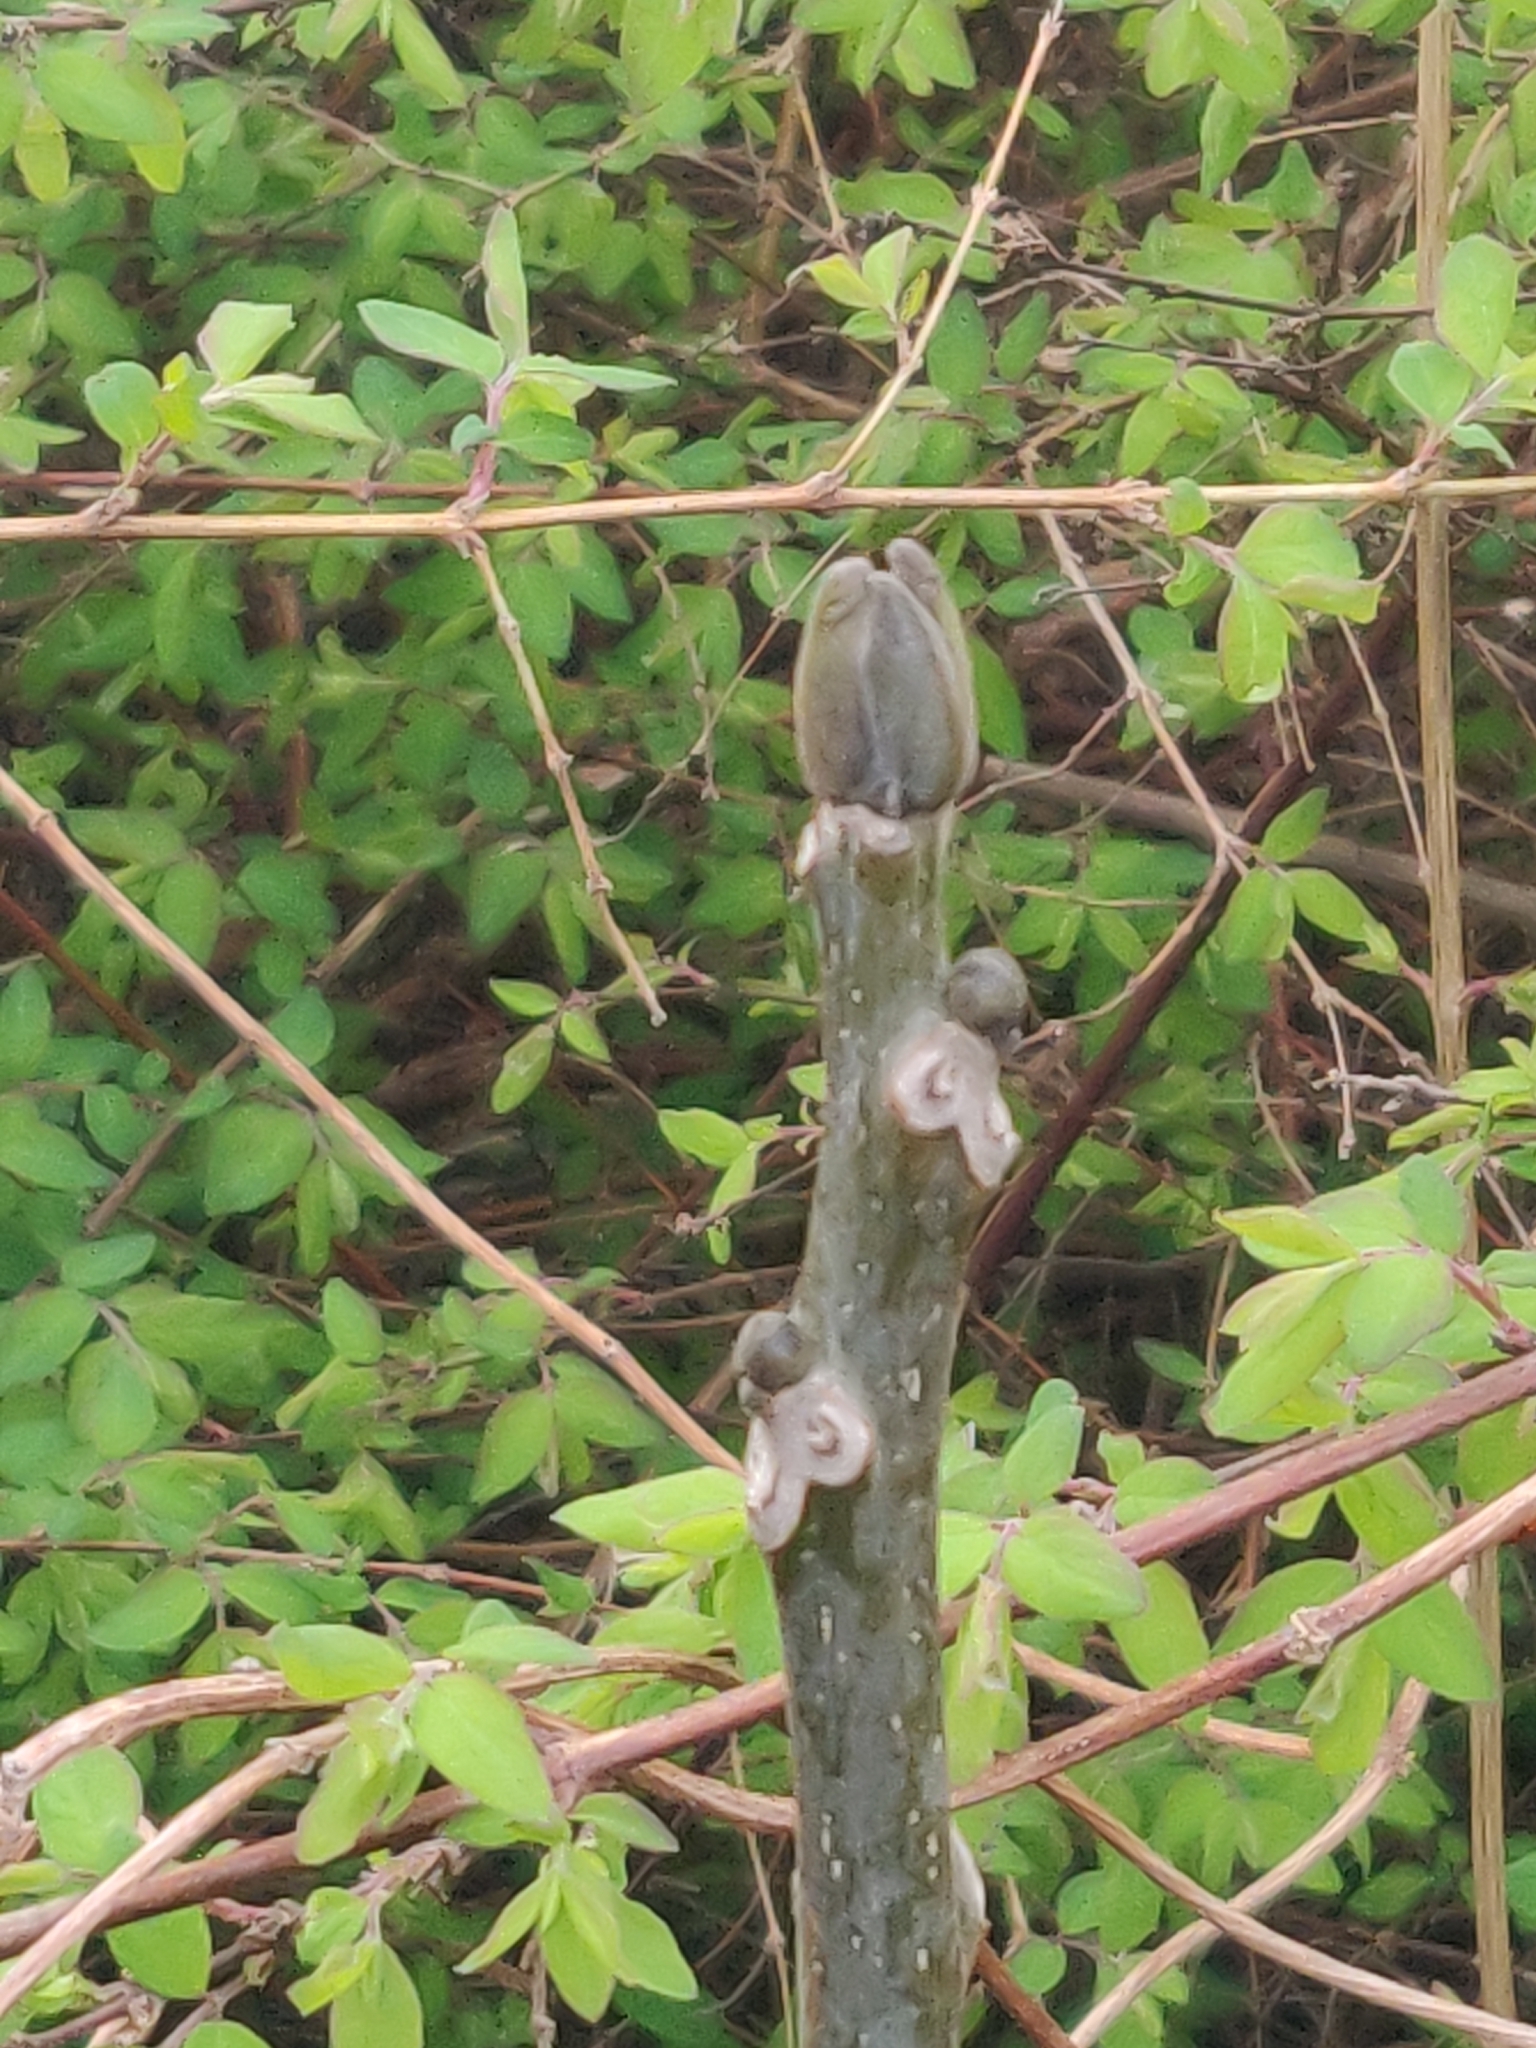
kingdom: Plantae
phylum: Tracheophyta
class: Magnoliopsida
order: Fagales
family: Juglandaceae
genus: Juglans
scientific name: Juglans regia
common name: Walnut
